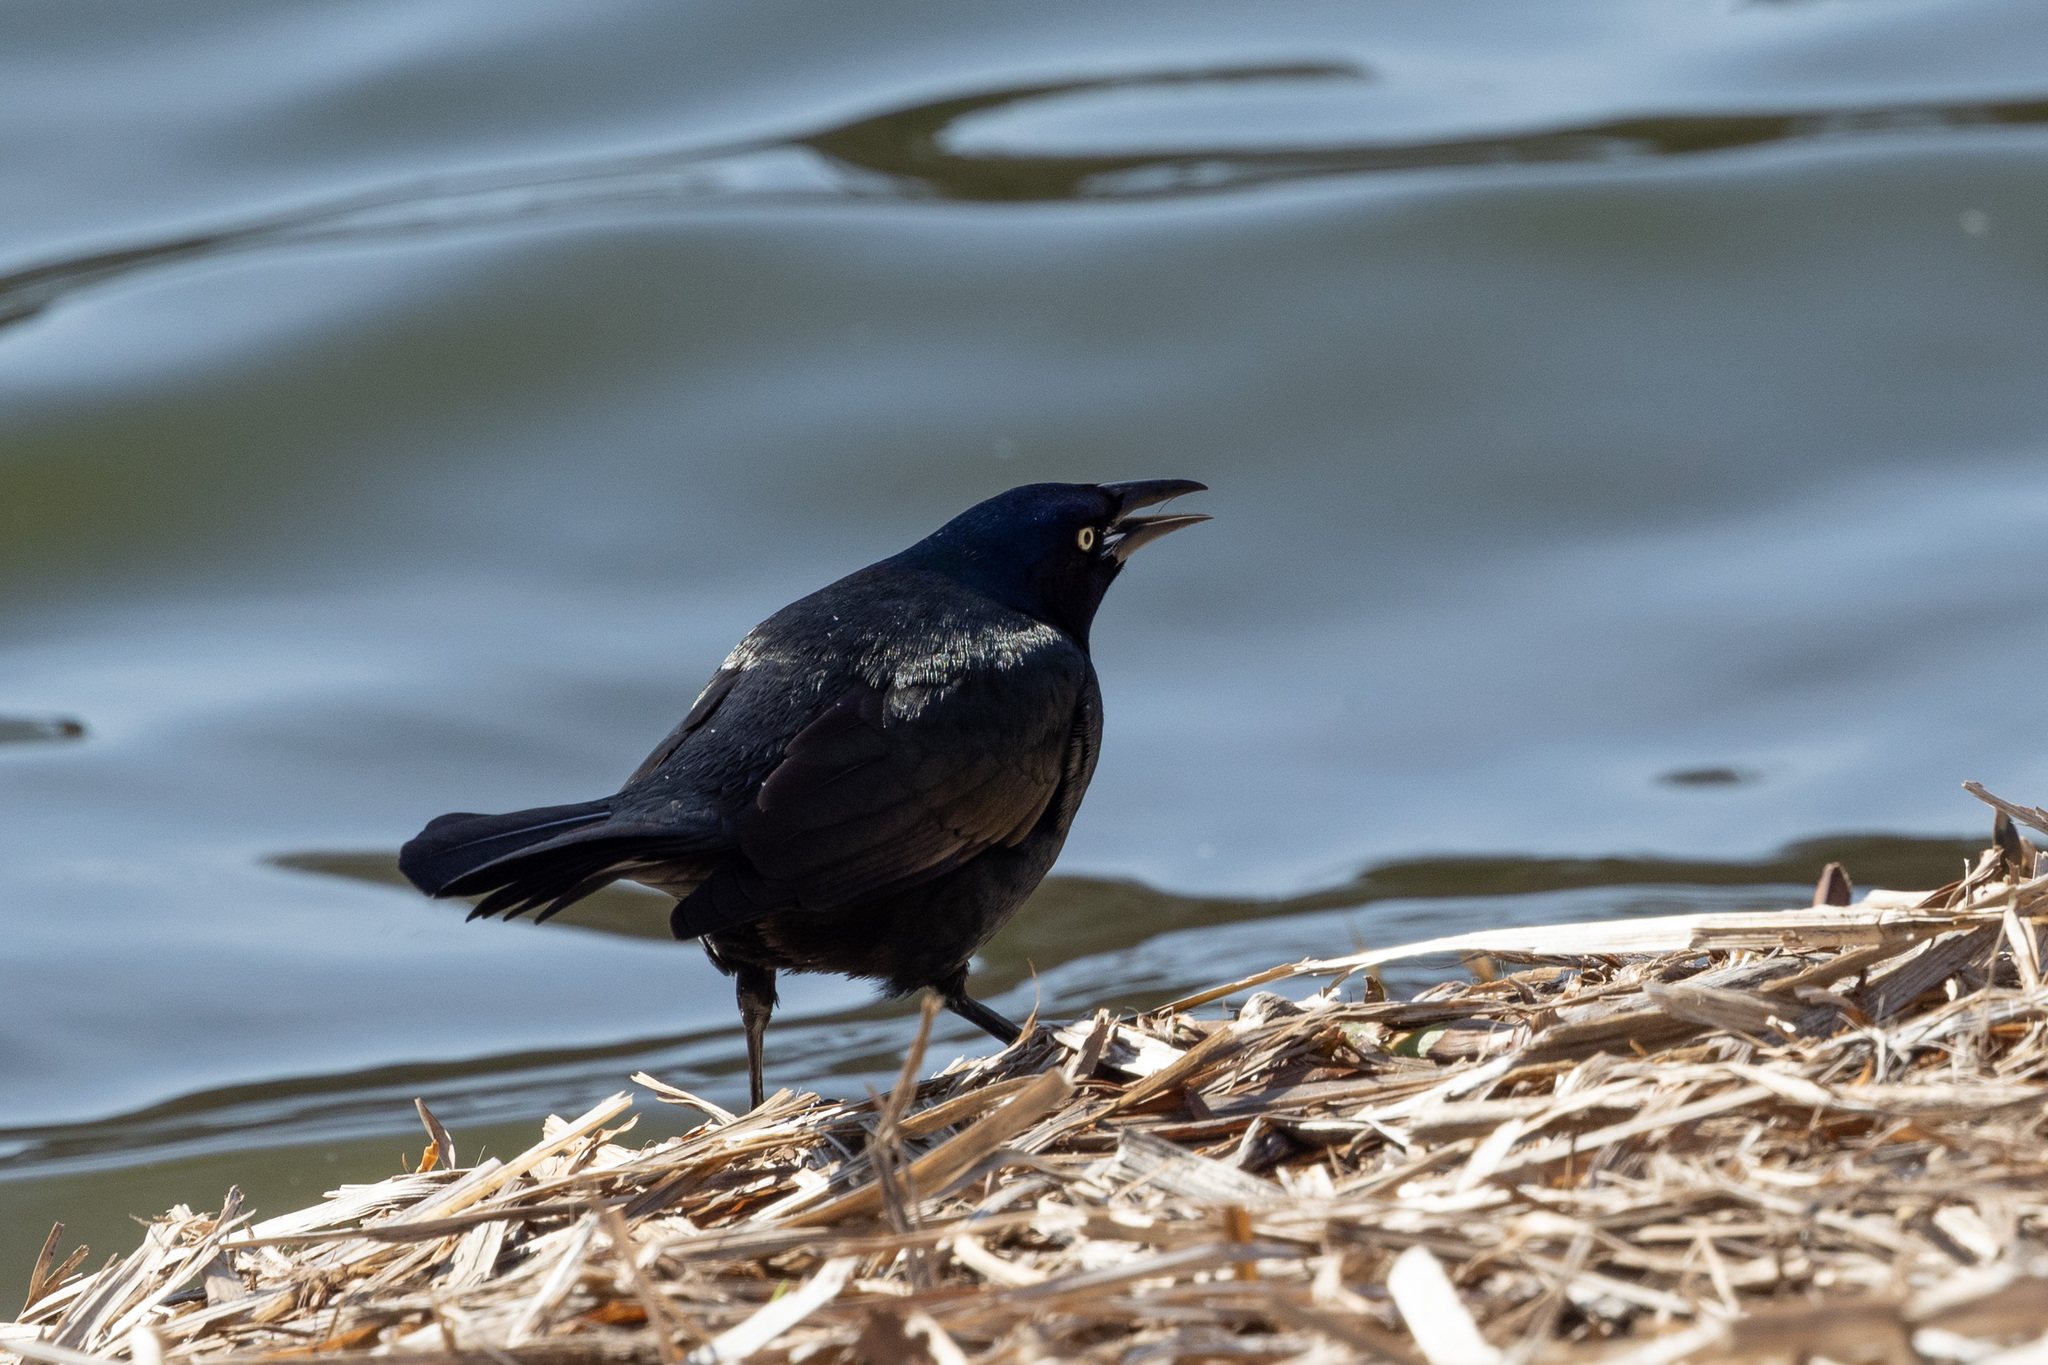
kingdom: Animalia
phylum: Chordata
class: Aves
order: Passeriformes
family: Icteridae
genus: Quiscalus
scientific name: Quiscalus quiscula
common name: Common grackle
